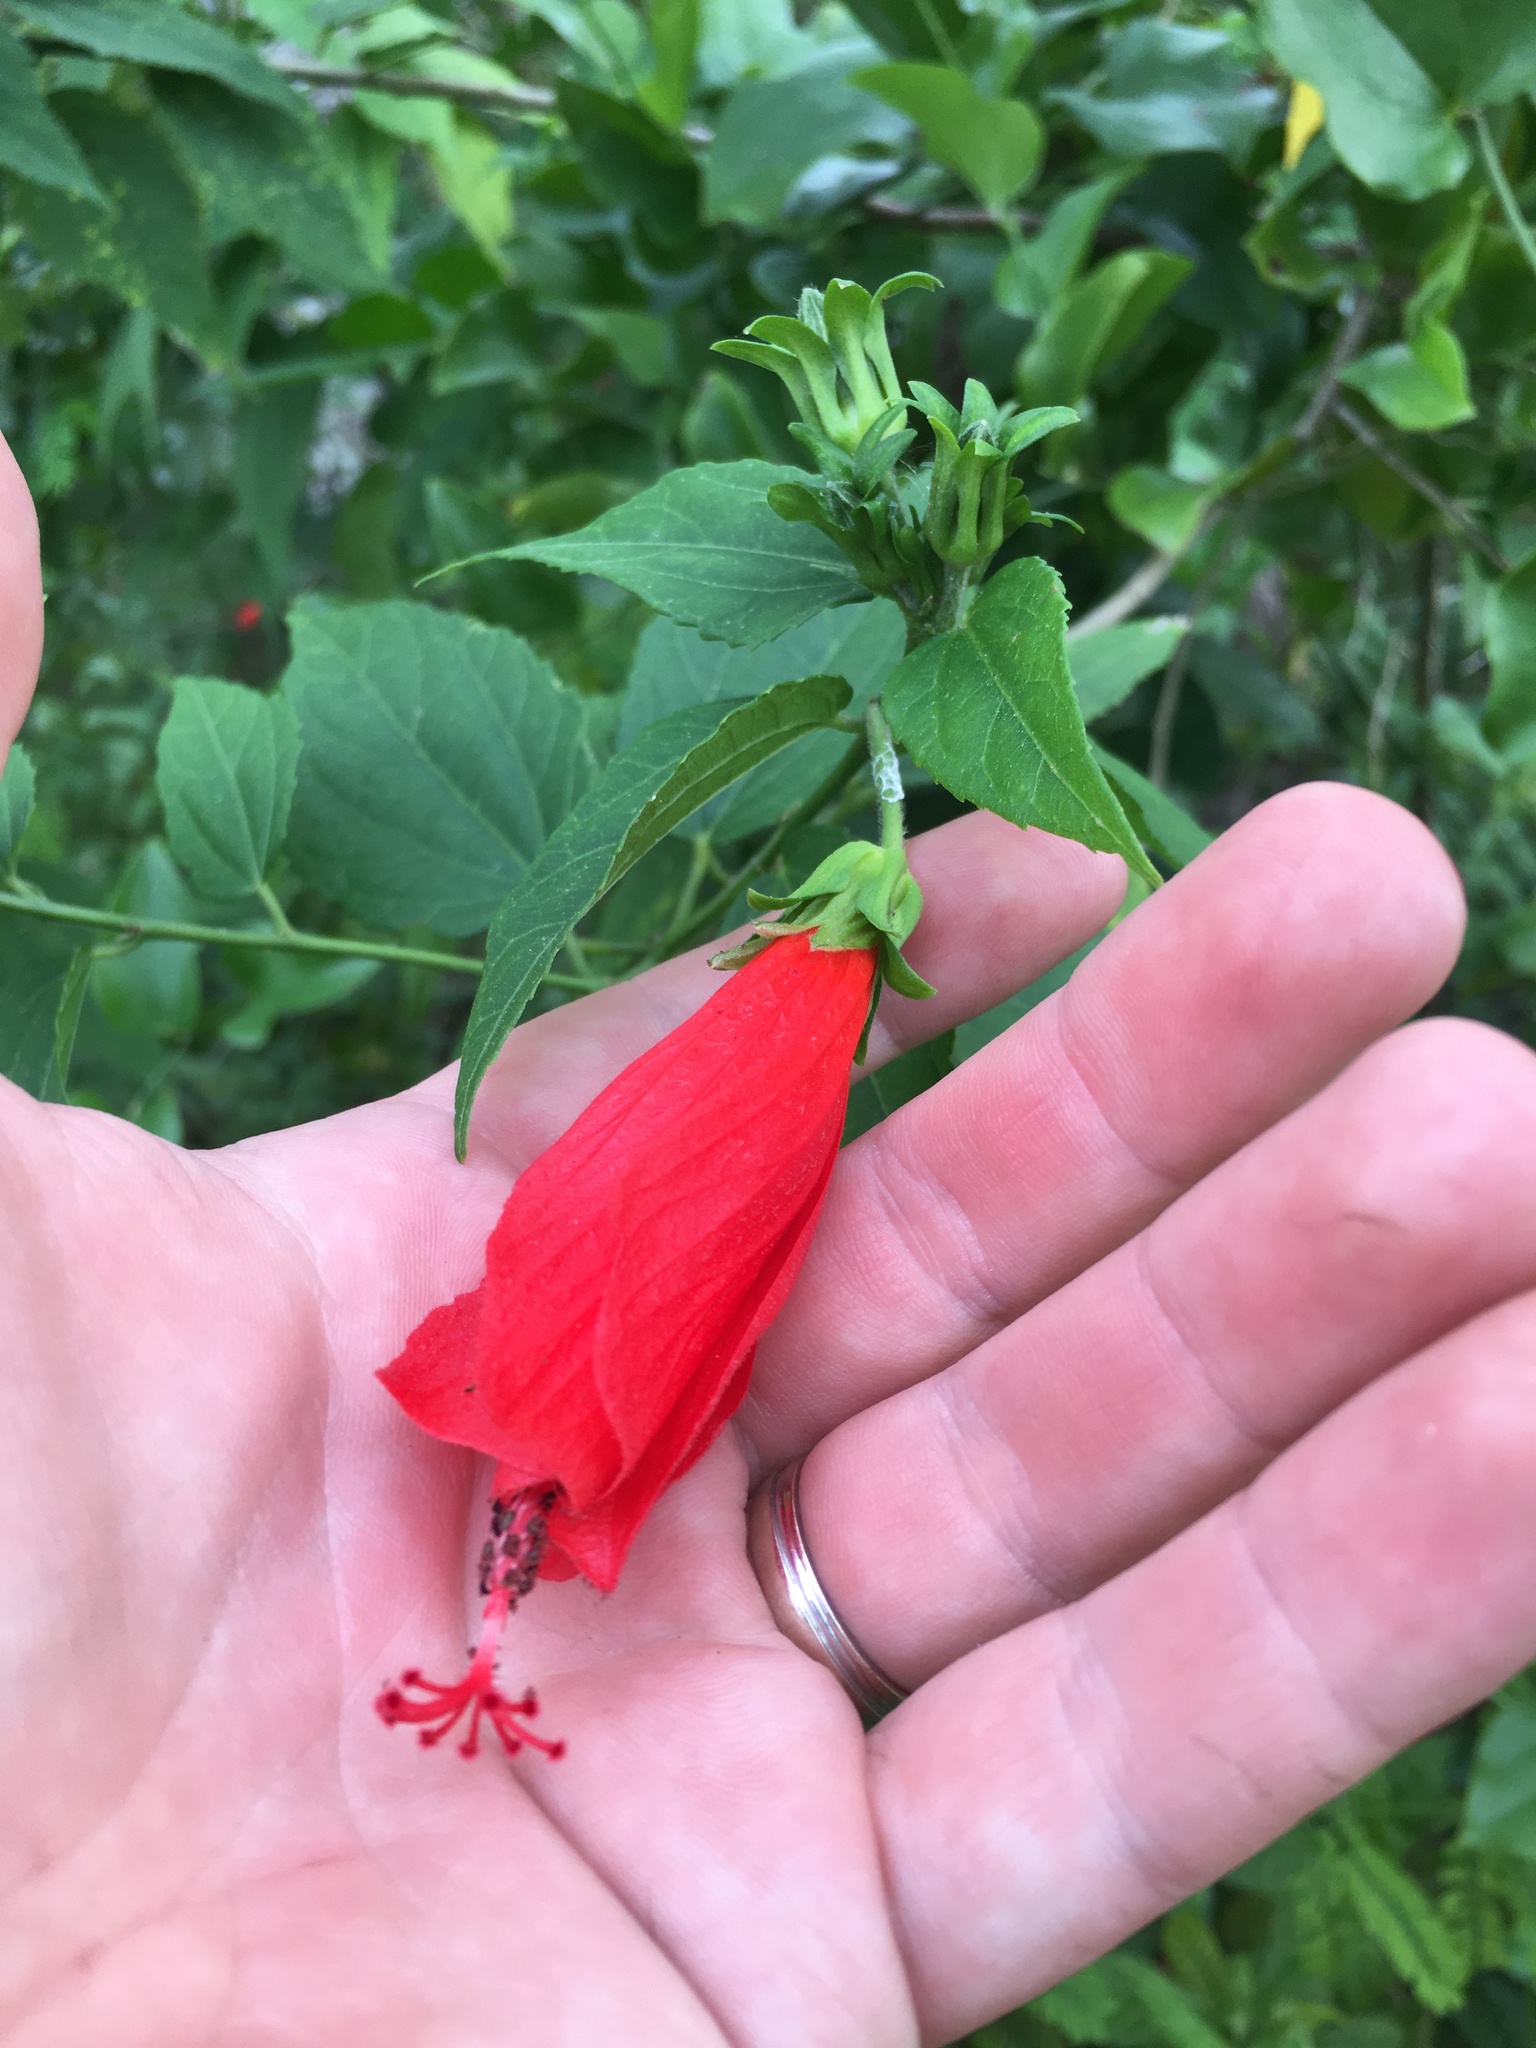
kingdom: Plantae
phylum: Tracheophyta
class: Magnoliopsida
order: Malvales
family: Malvaceae
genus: Malvaviscus
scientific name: Malvaviscus penduliflorus
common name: Mazapan
